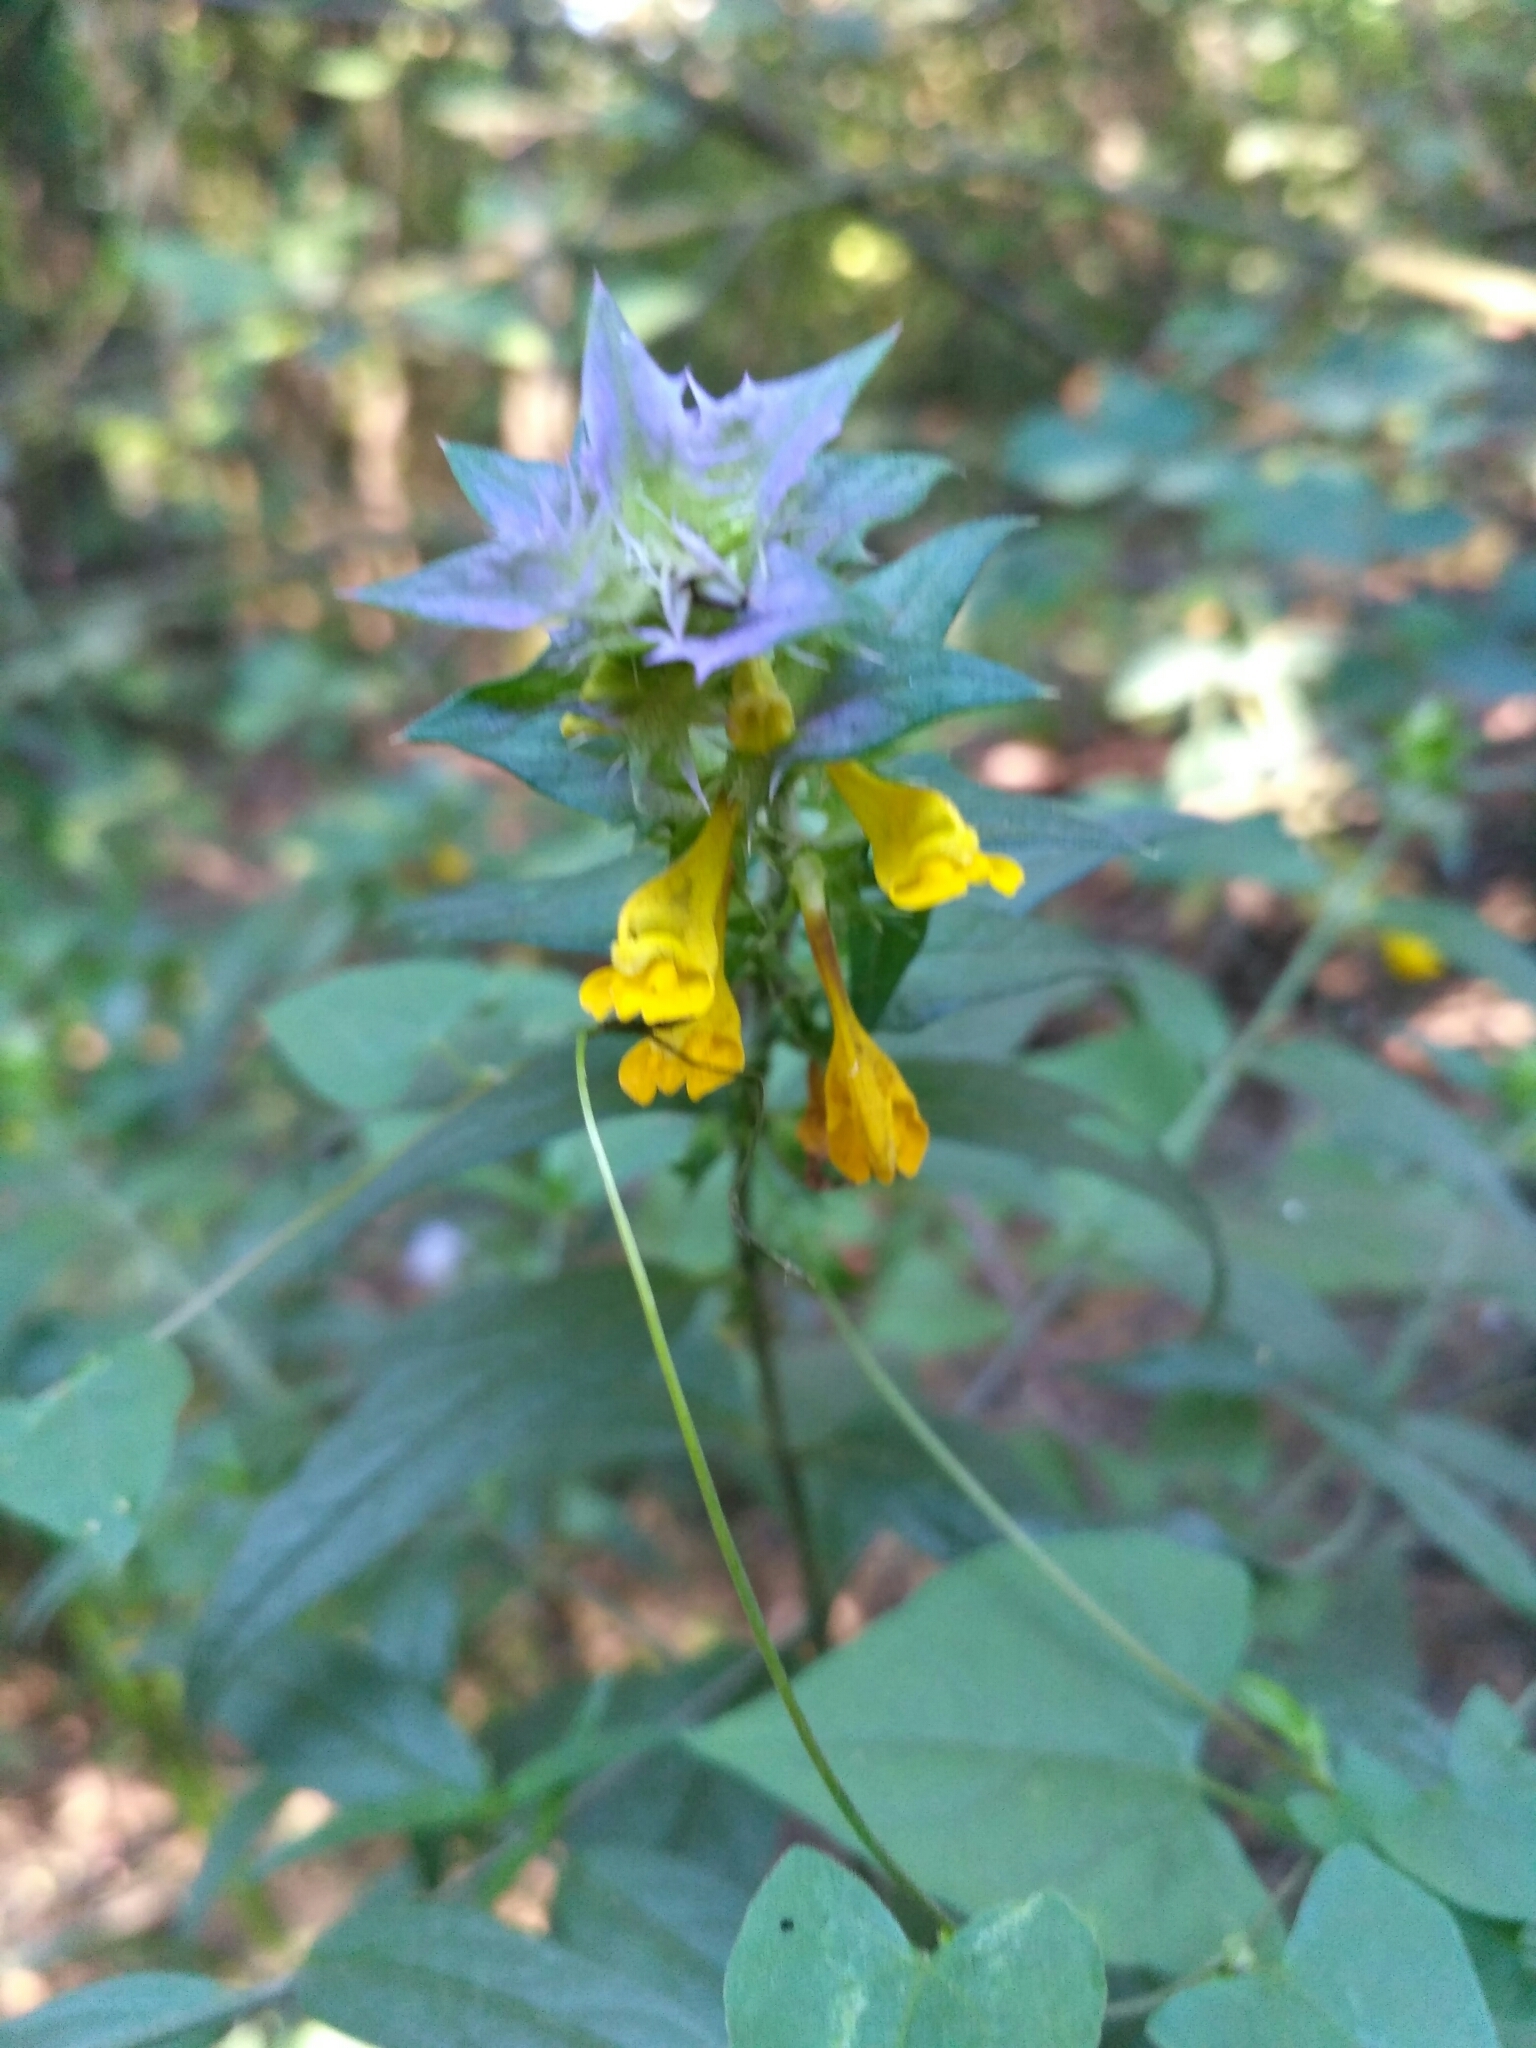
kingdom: Plantae
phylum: Tracheophyta
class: Magnoliopsida
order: Lamiales
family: Orobanchaceae
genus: Melampyrum
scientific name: Melampyrum nemorosum
